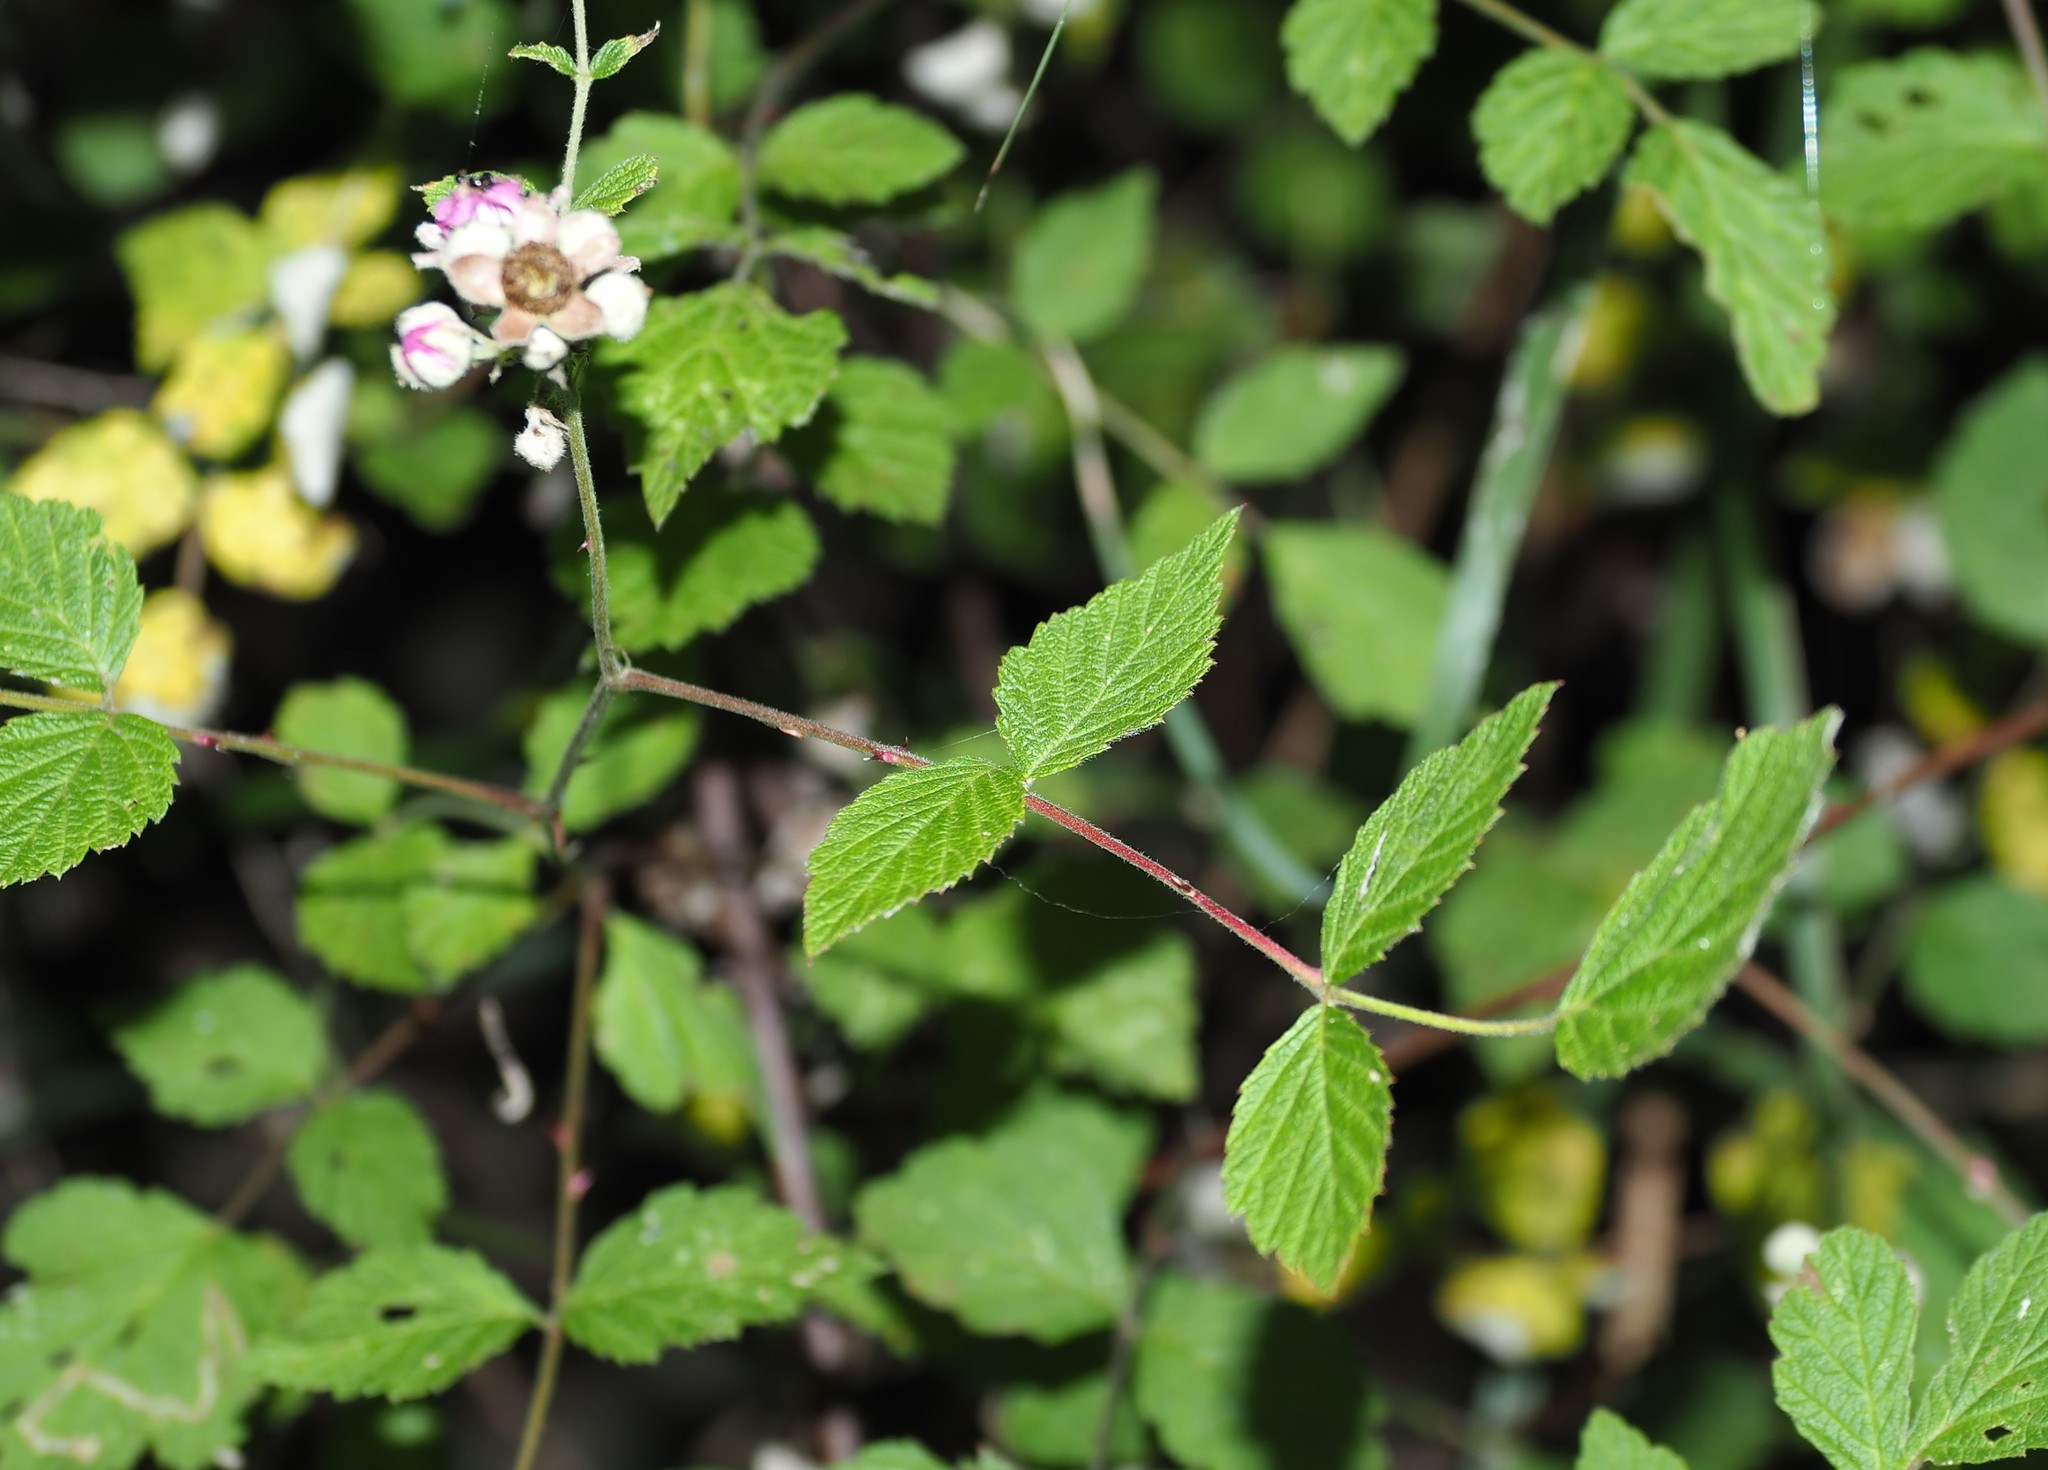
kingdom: Plantae
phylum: Tracheophyta
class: Magnoliopsida
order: Rosales
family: Rosaceae
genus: Rubus
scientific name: Rubus niveus
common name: Snowpeaks raspberry
